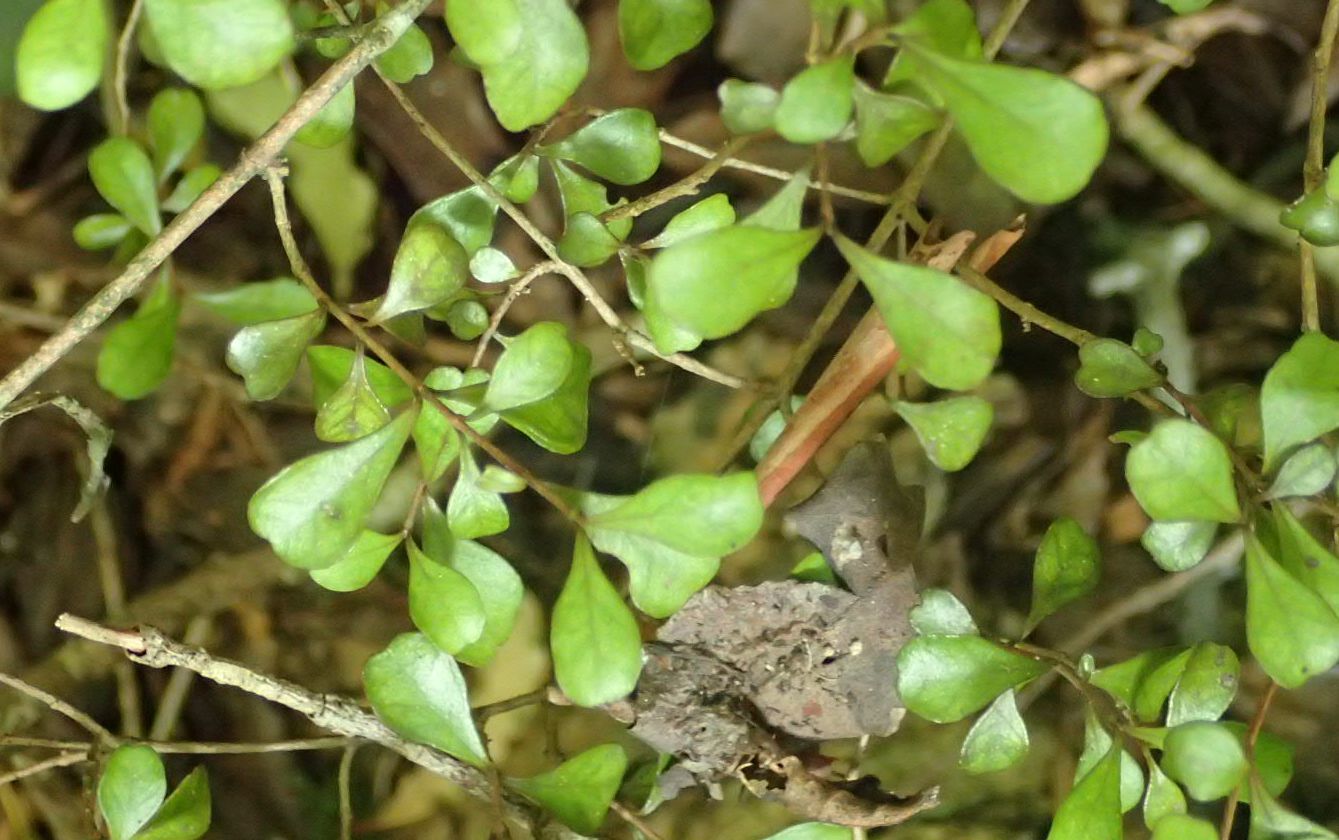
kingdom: Plantae
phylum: Tracheophyta
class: Magnoliopsida
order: Myrtales
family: Myrtaceae
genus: Lophomyrtus
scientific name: Lophomyrtus obcordata
